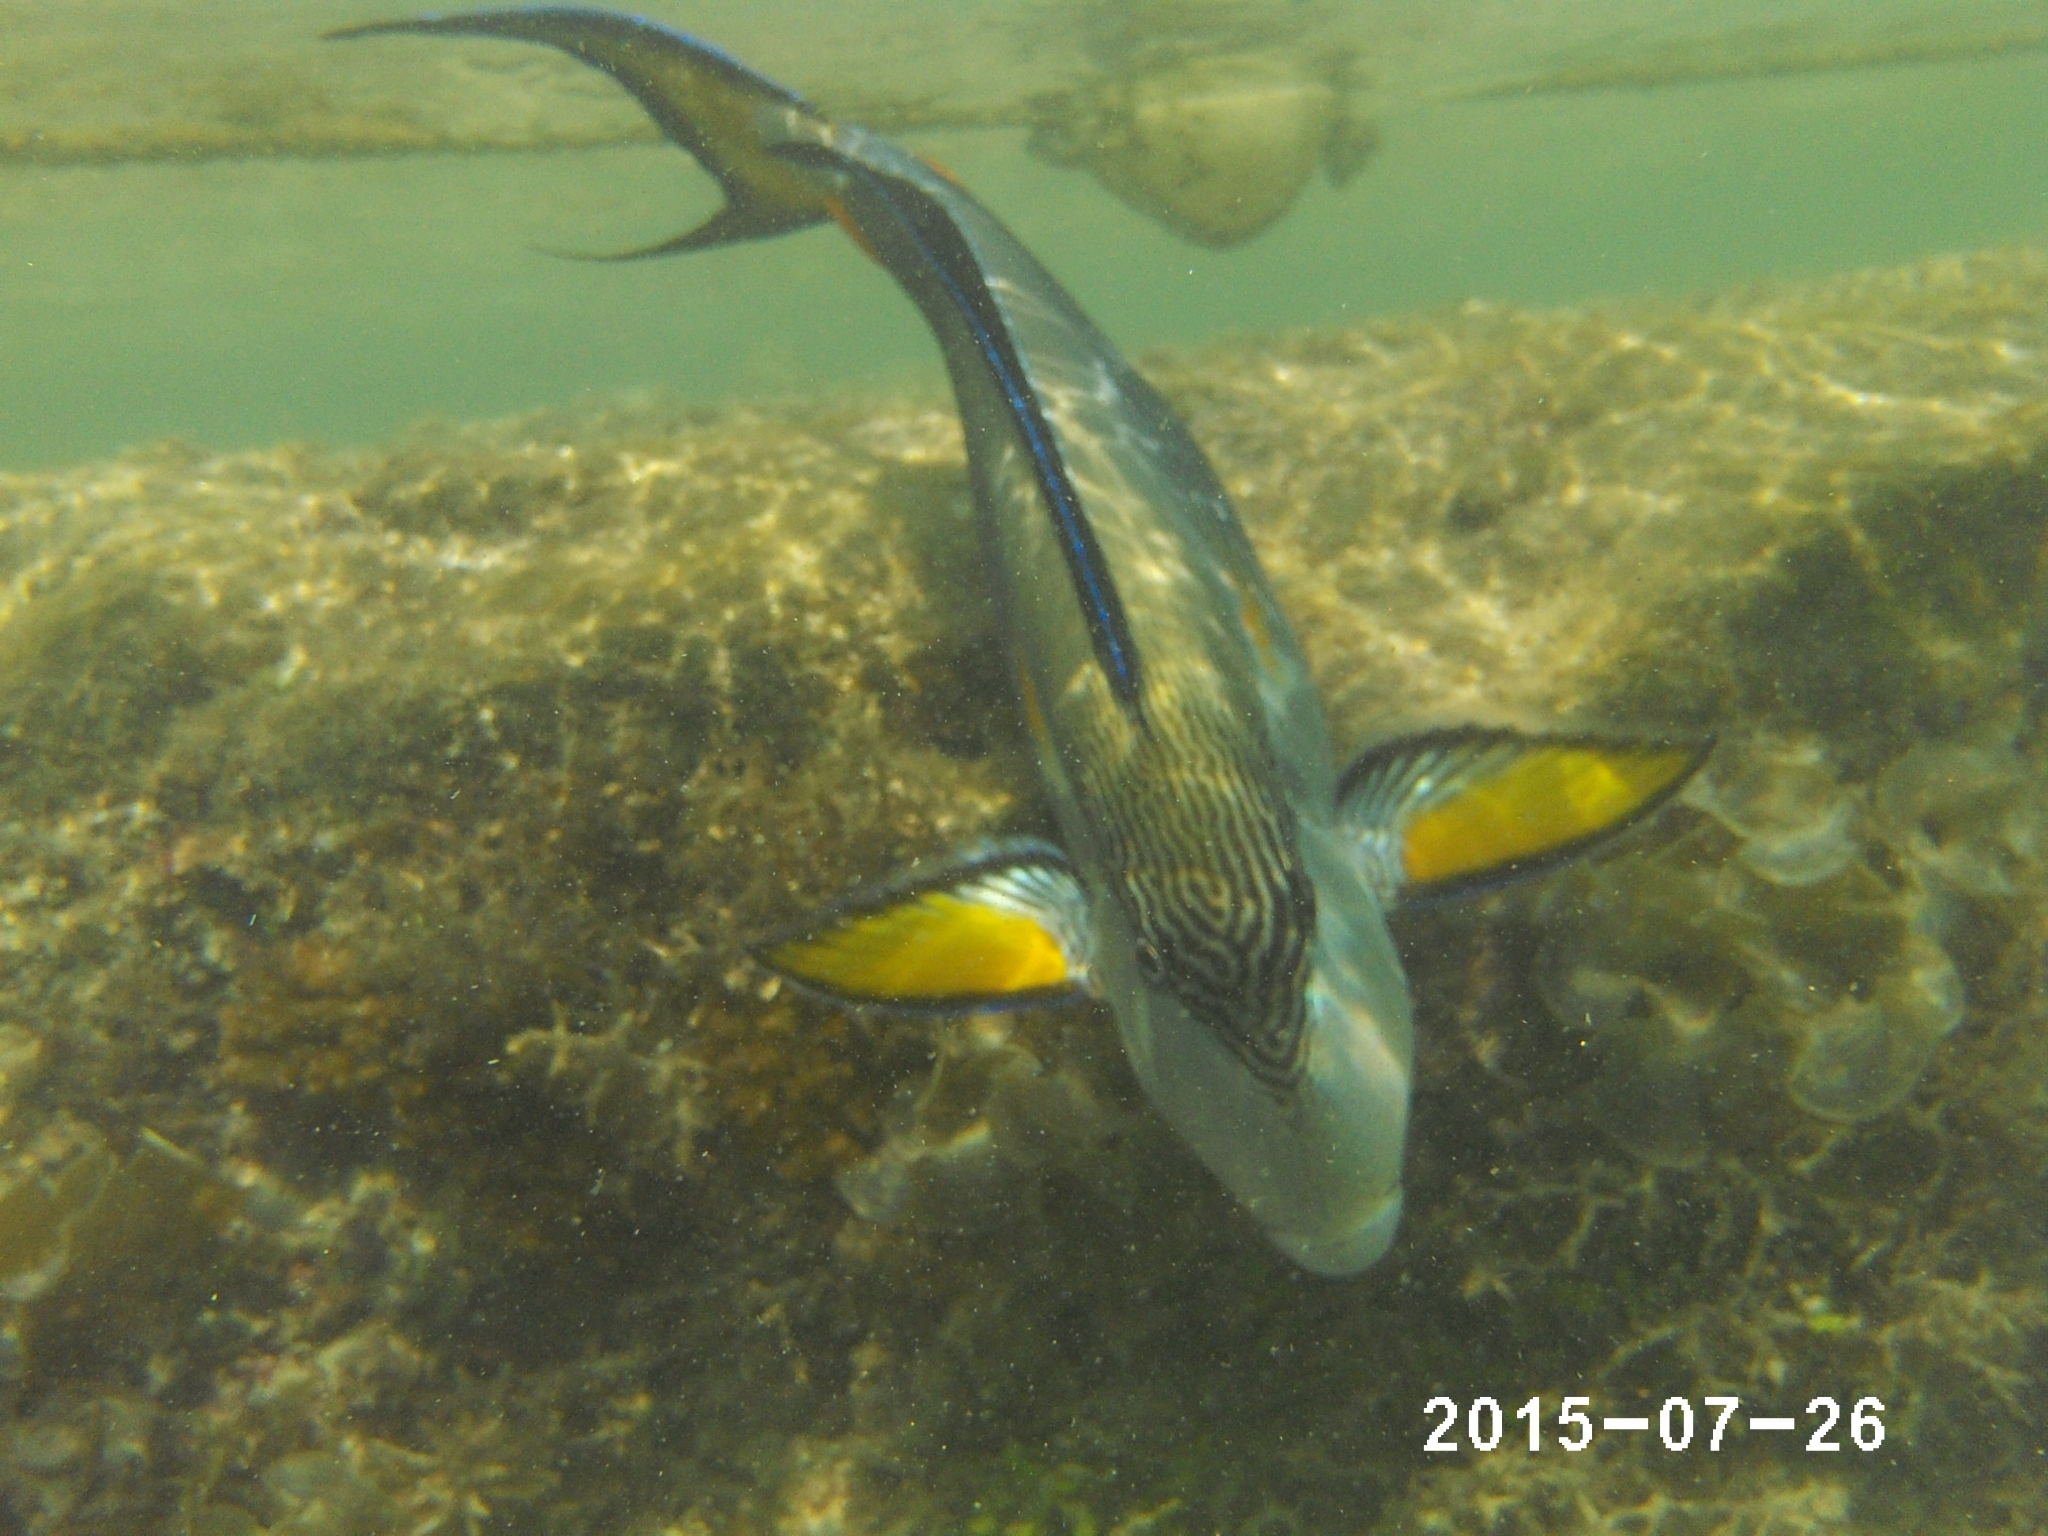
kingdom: Animalia
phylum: Chordata
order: Perciformes
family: Acanthuridae
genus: Acanthurus
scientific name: Acanthurus sohal
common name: Red sea surgeonfish
